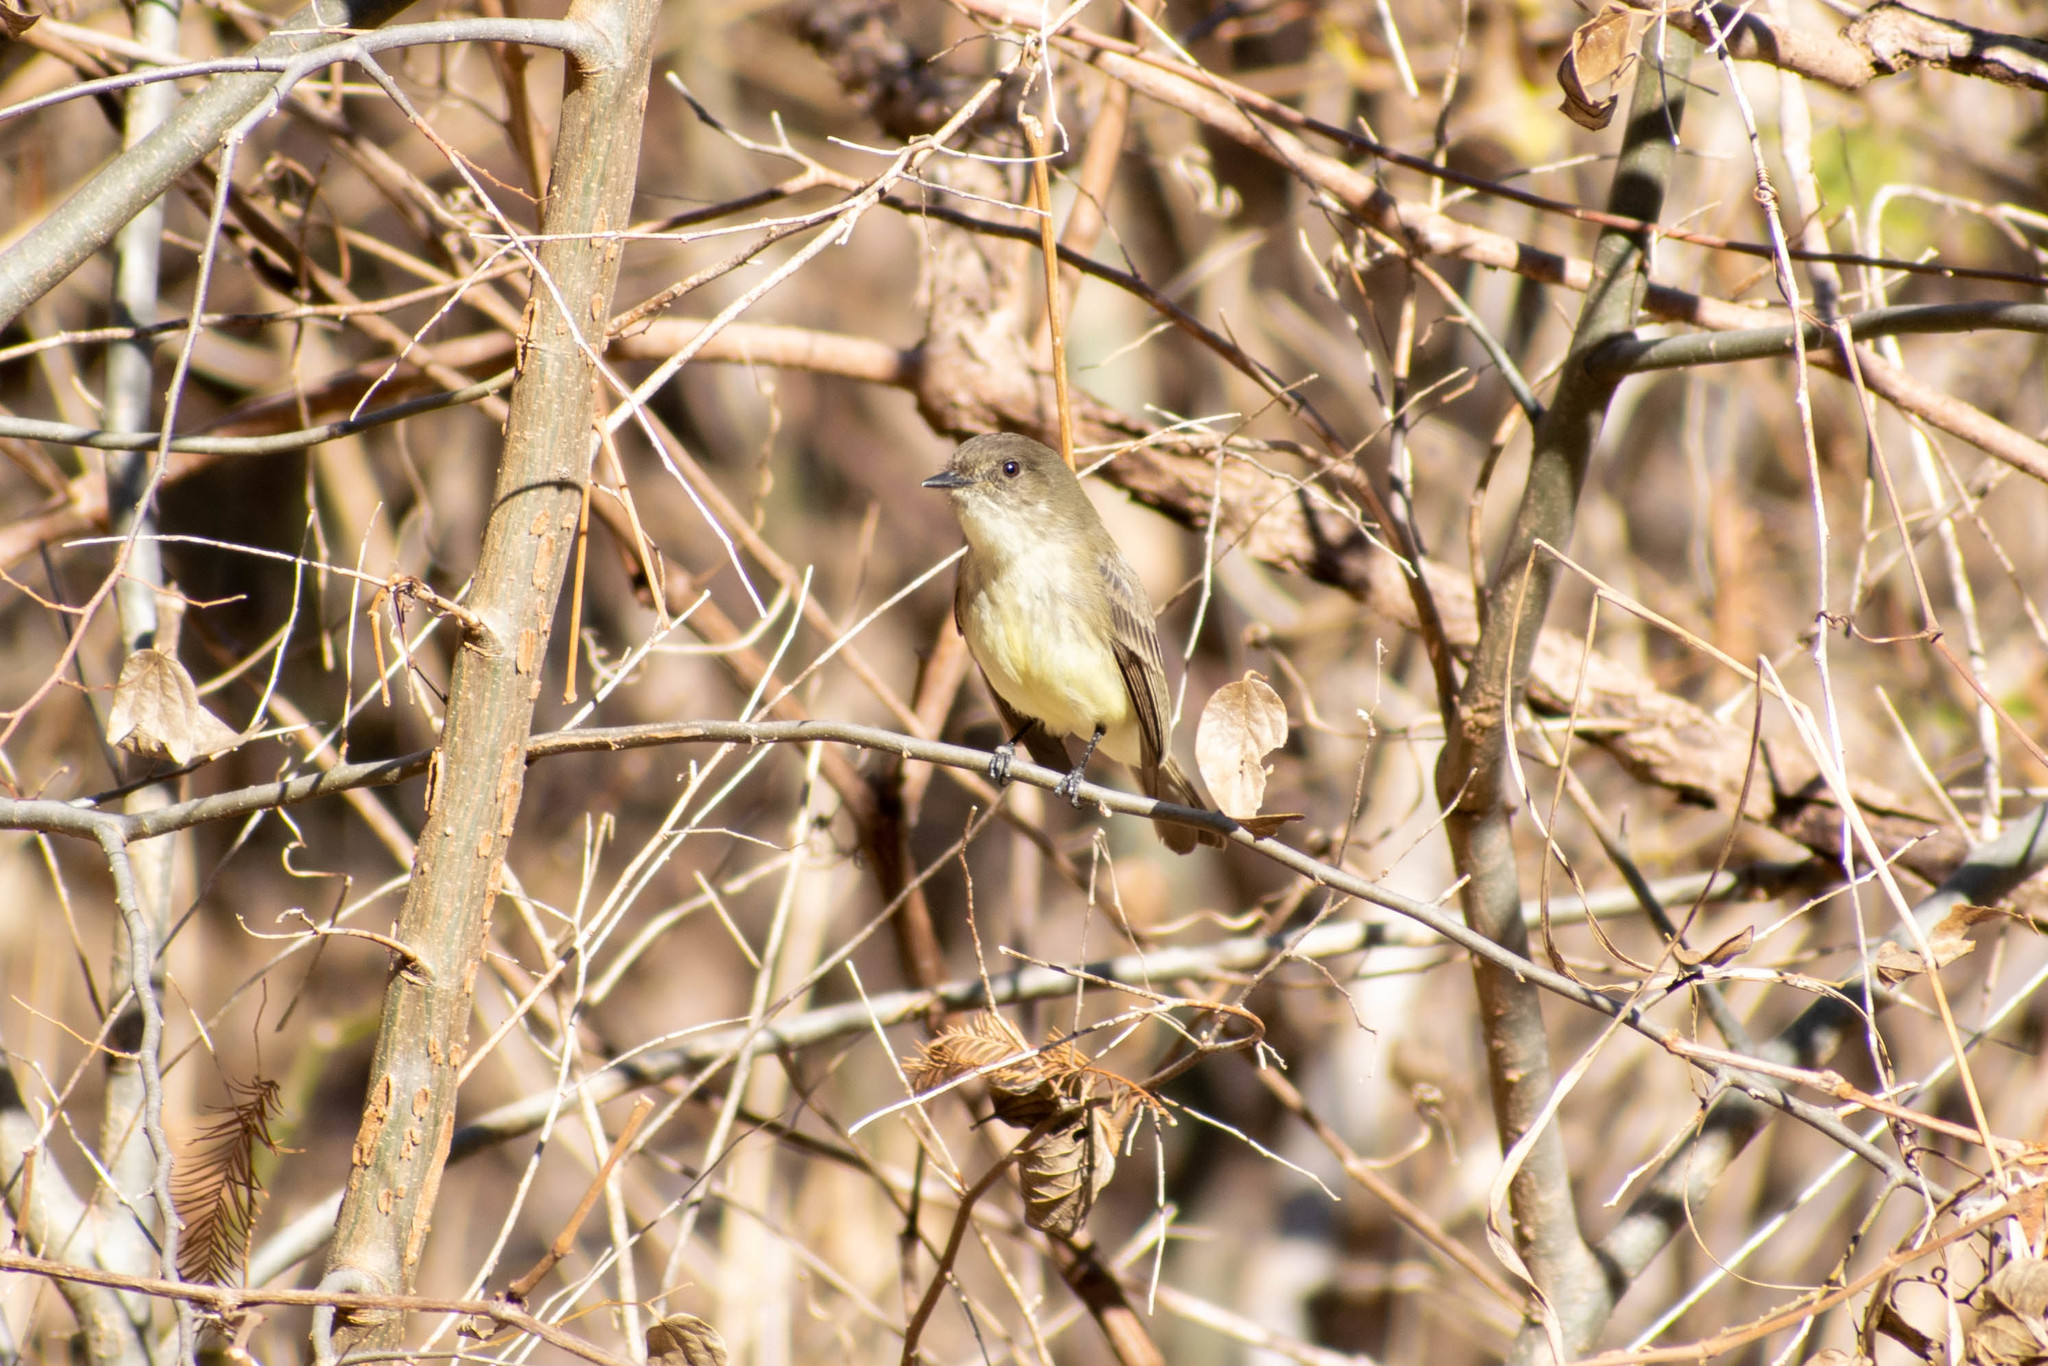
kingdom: Animalia
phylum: Chordata
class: Aves
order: Passeriformes
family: Tyrannidae
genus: Sayornis
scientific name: Sayornis phoebe
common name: Eastern phoebe
